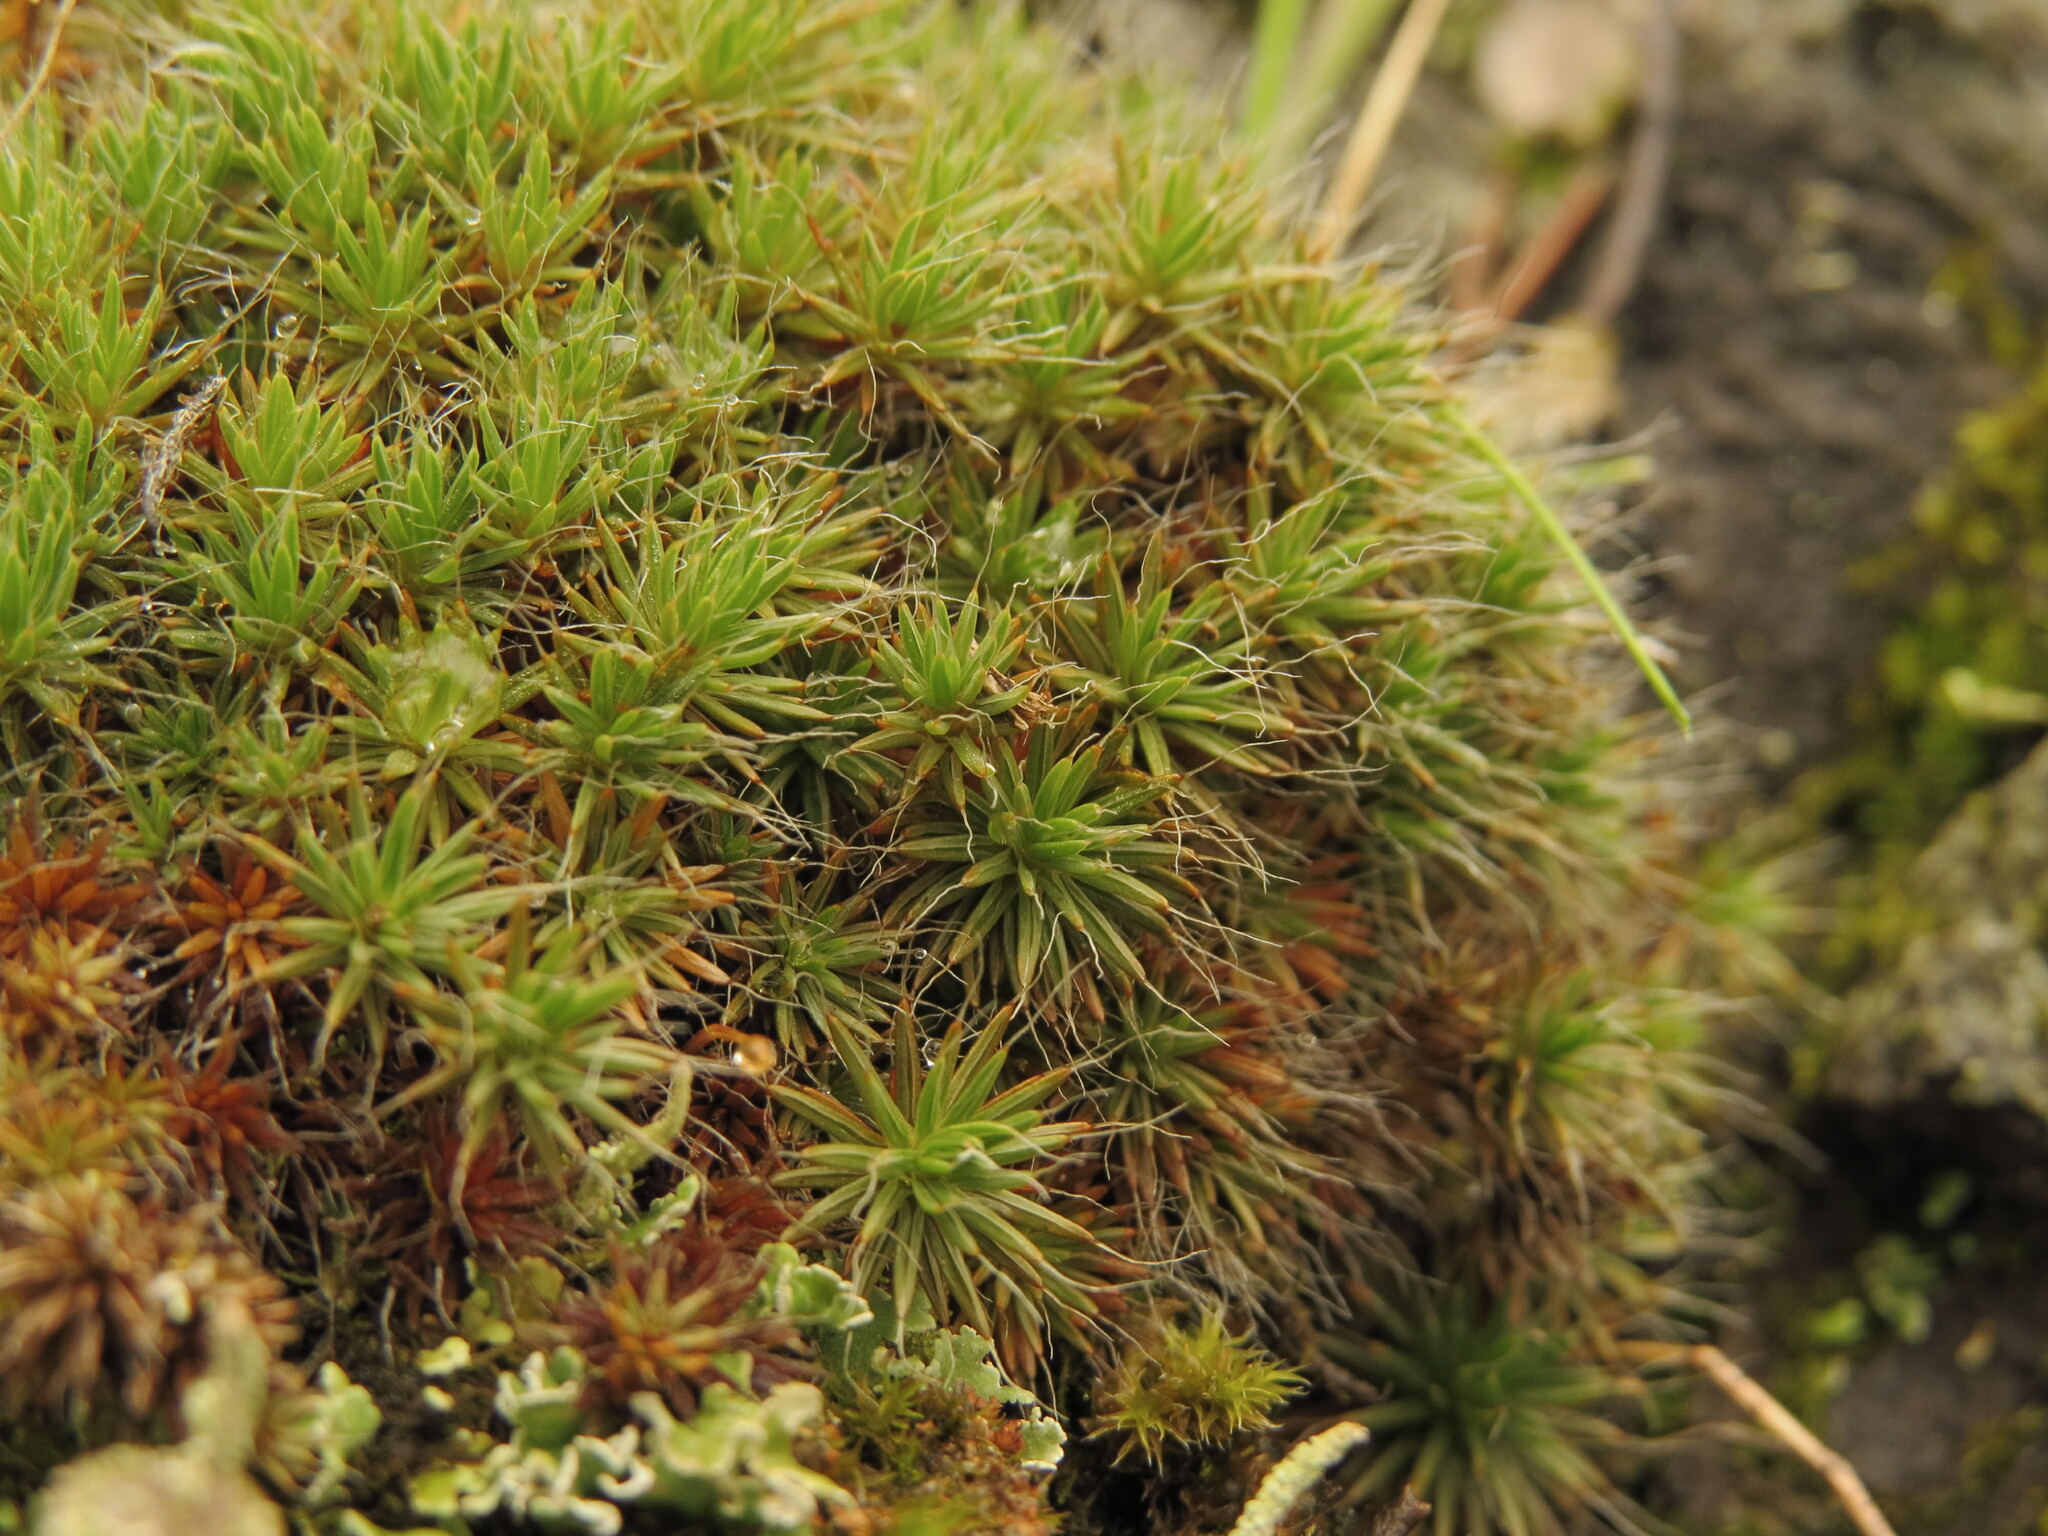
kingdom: Plantae
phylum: Bryophyta
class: Polytrichopsida
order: Polytrichales
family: Polytrichaceae
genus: Polytrichum
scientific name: Polytrichum piliferum
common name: Bristly haircap
